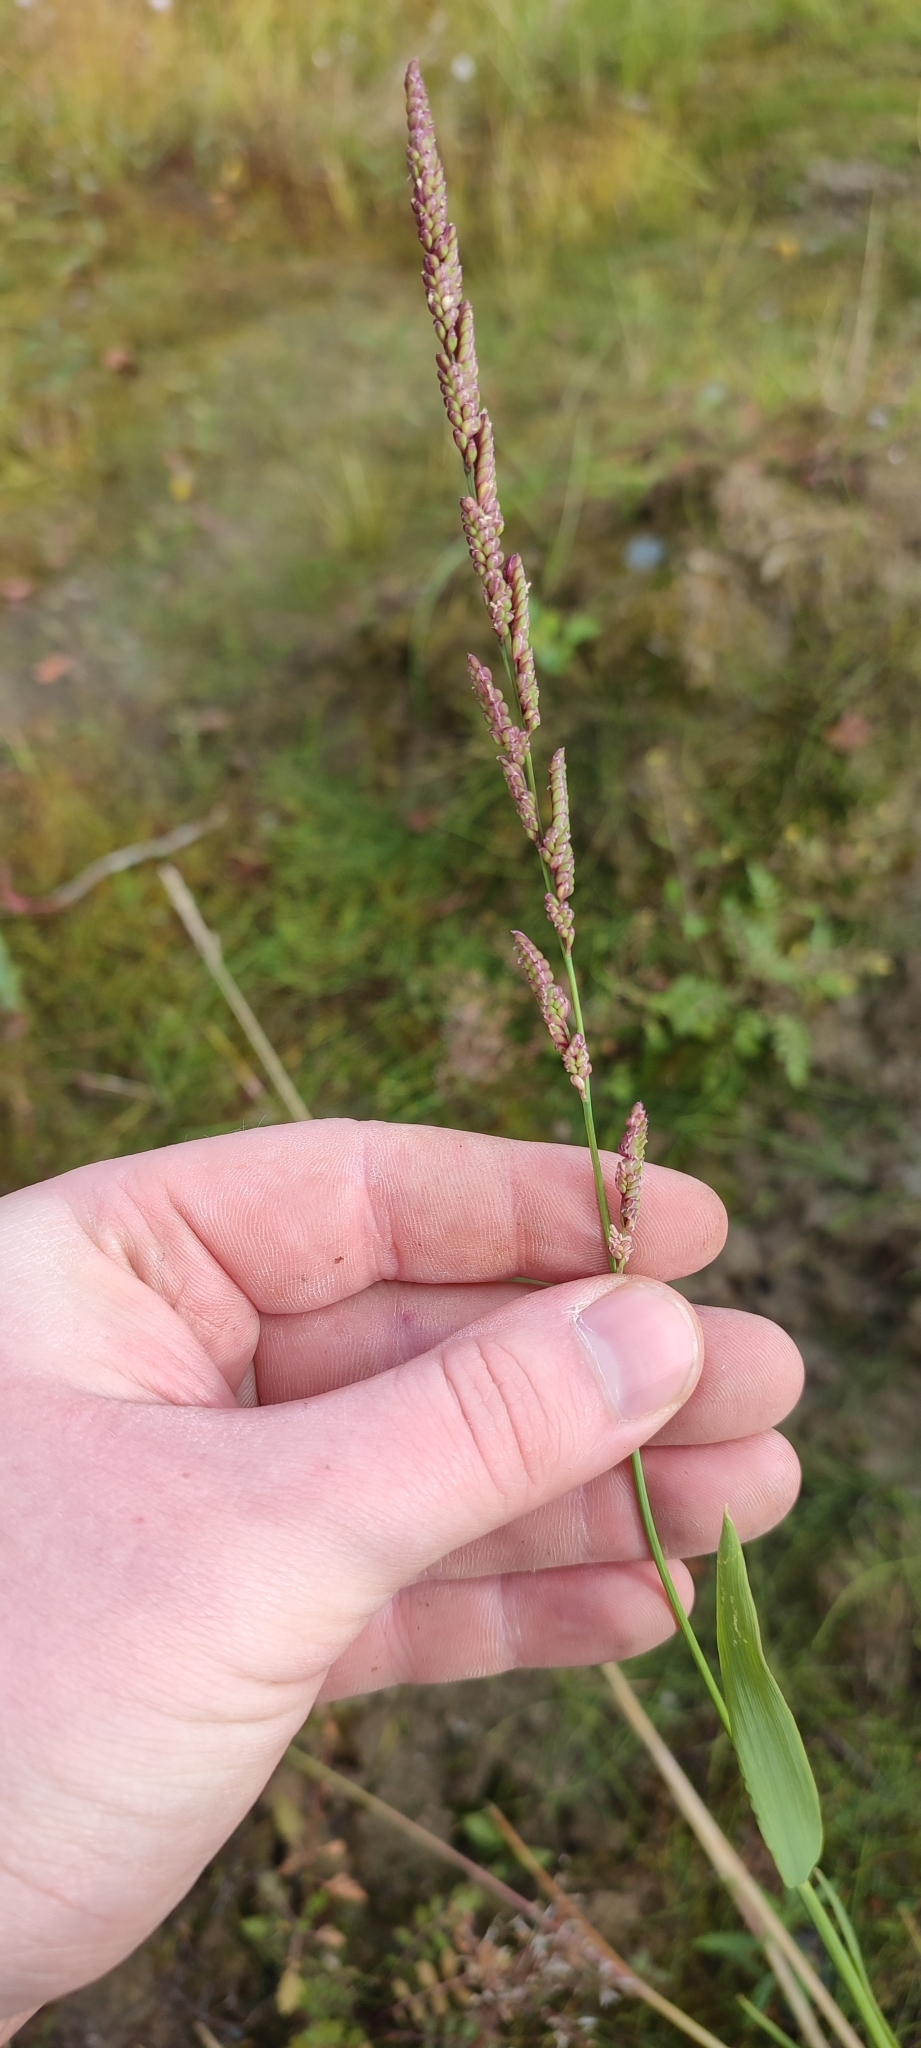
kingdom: Plantae
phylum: Tracheophyta
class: Liliopsida
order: Poales
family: Poaceae
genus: Beckmannia
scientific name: Beckmannia syzigachne
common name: American slough-grass
